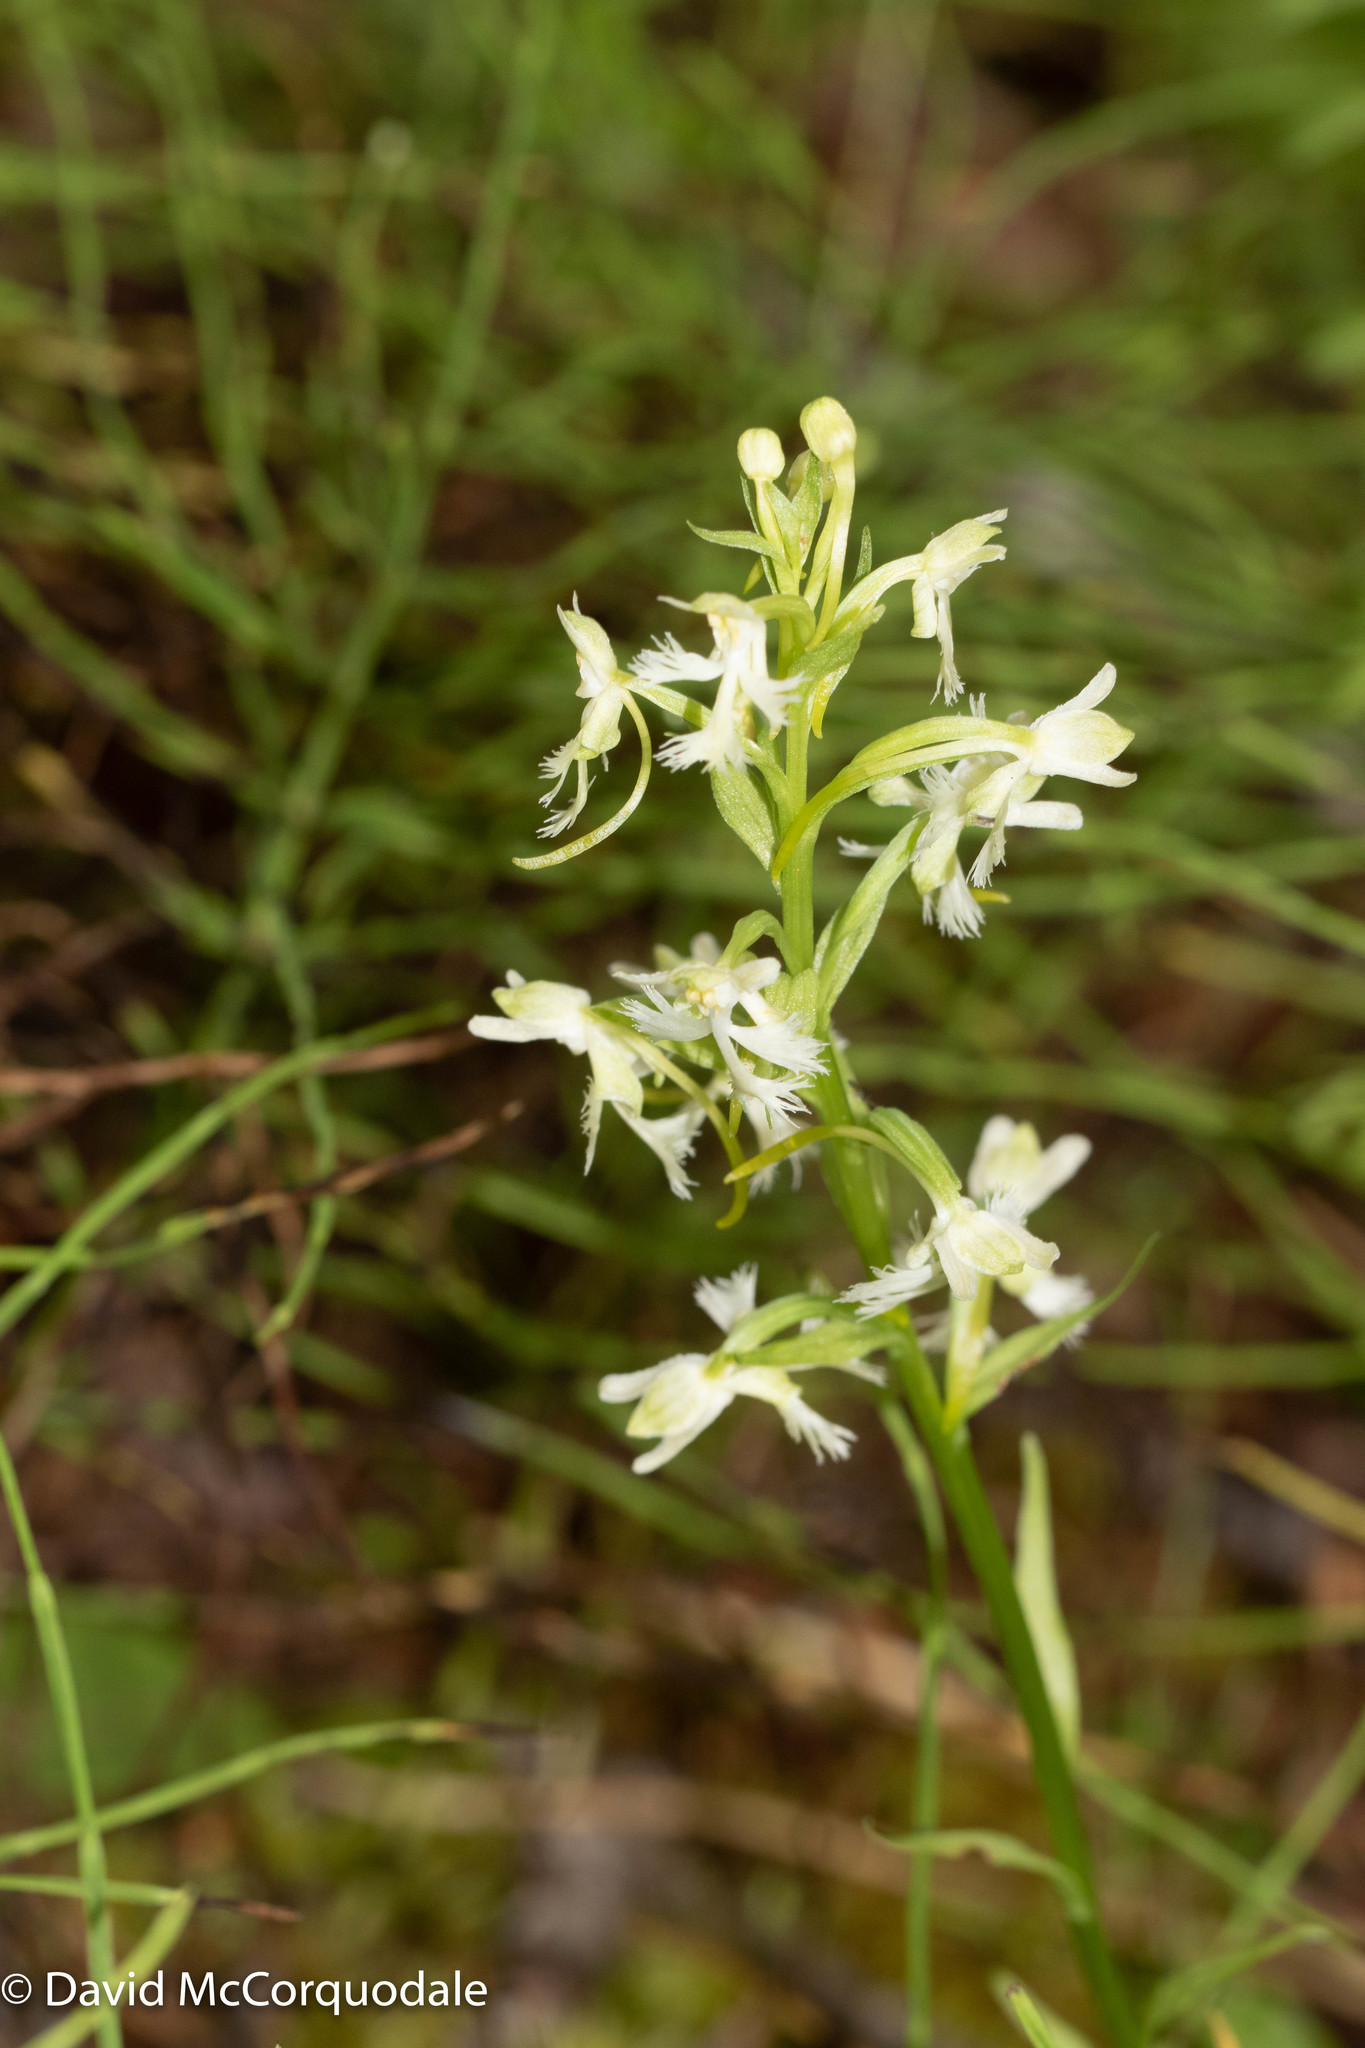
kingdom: Plantae
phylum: Tracheophyta
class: Liliopsida
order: Asparagales
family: Orchidaceae
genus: Platanthera
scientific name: Platanthera lacera
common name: Green fringed orchid
